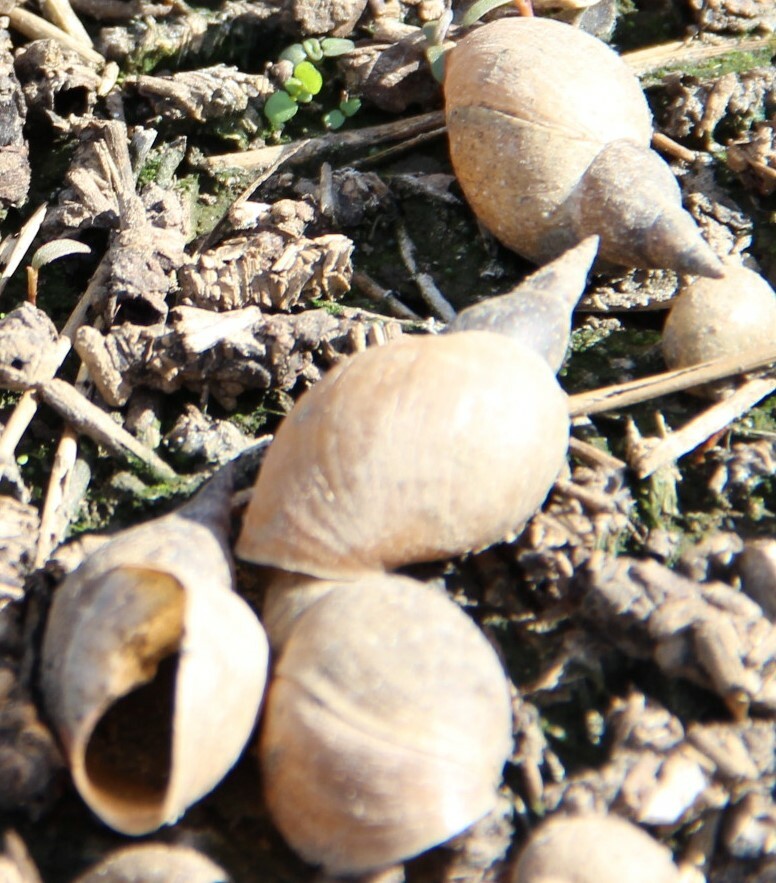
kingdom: Animalia
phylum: Mollusca
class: Gastropoda
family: Lymnaeidae
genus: Lymnaea
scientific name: Lymnaea stagnalis
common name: Great pond snail
